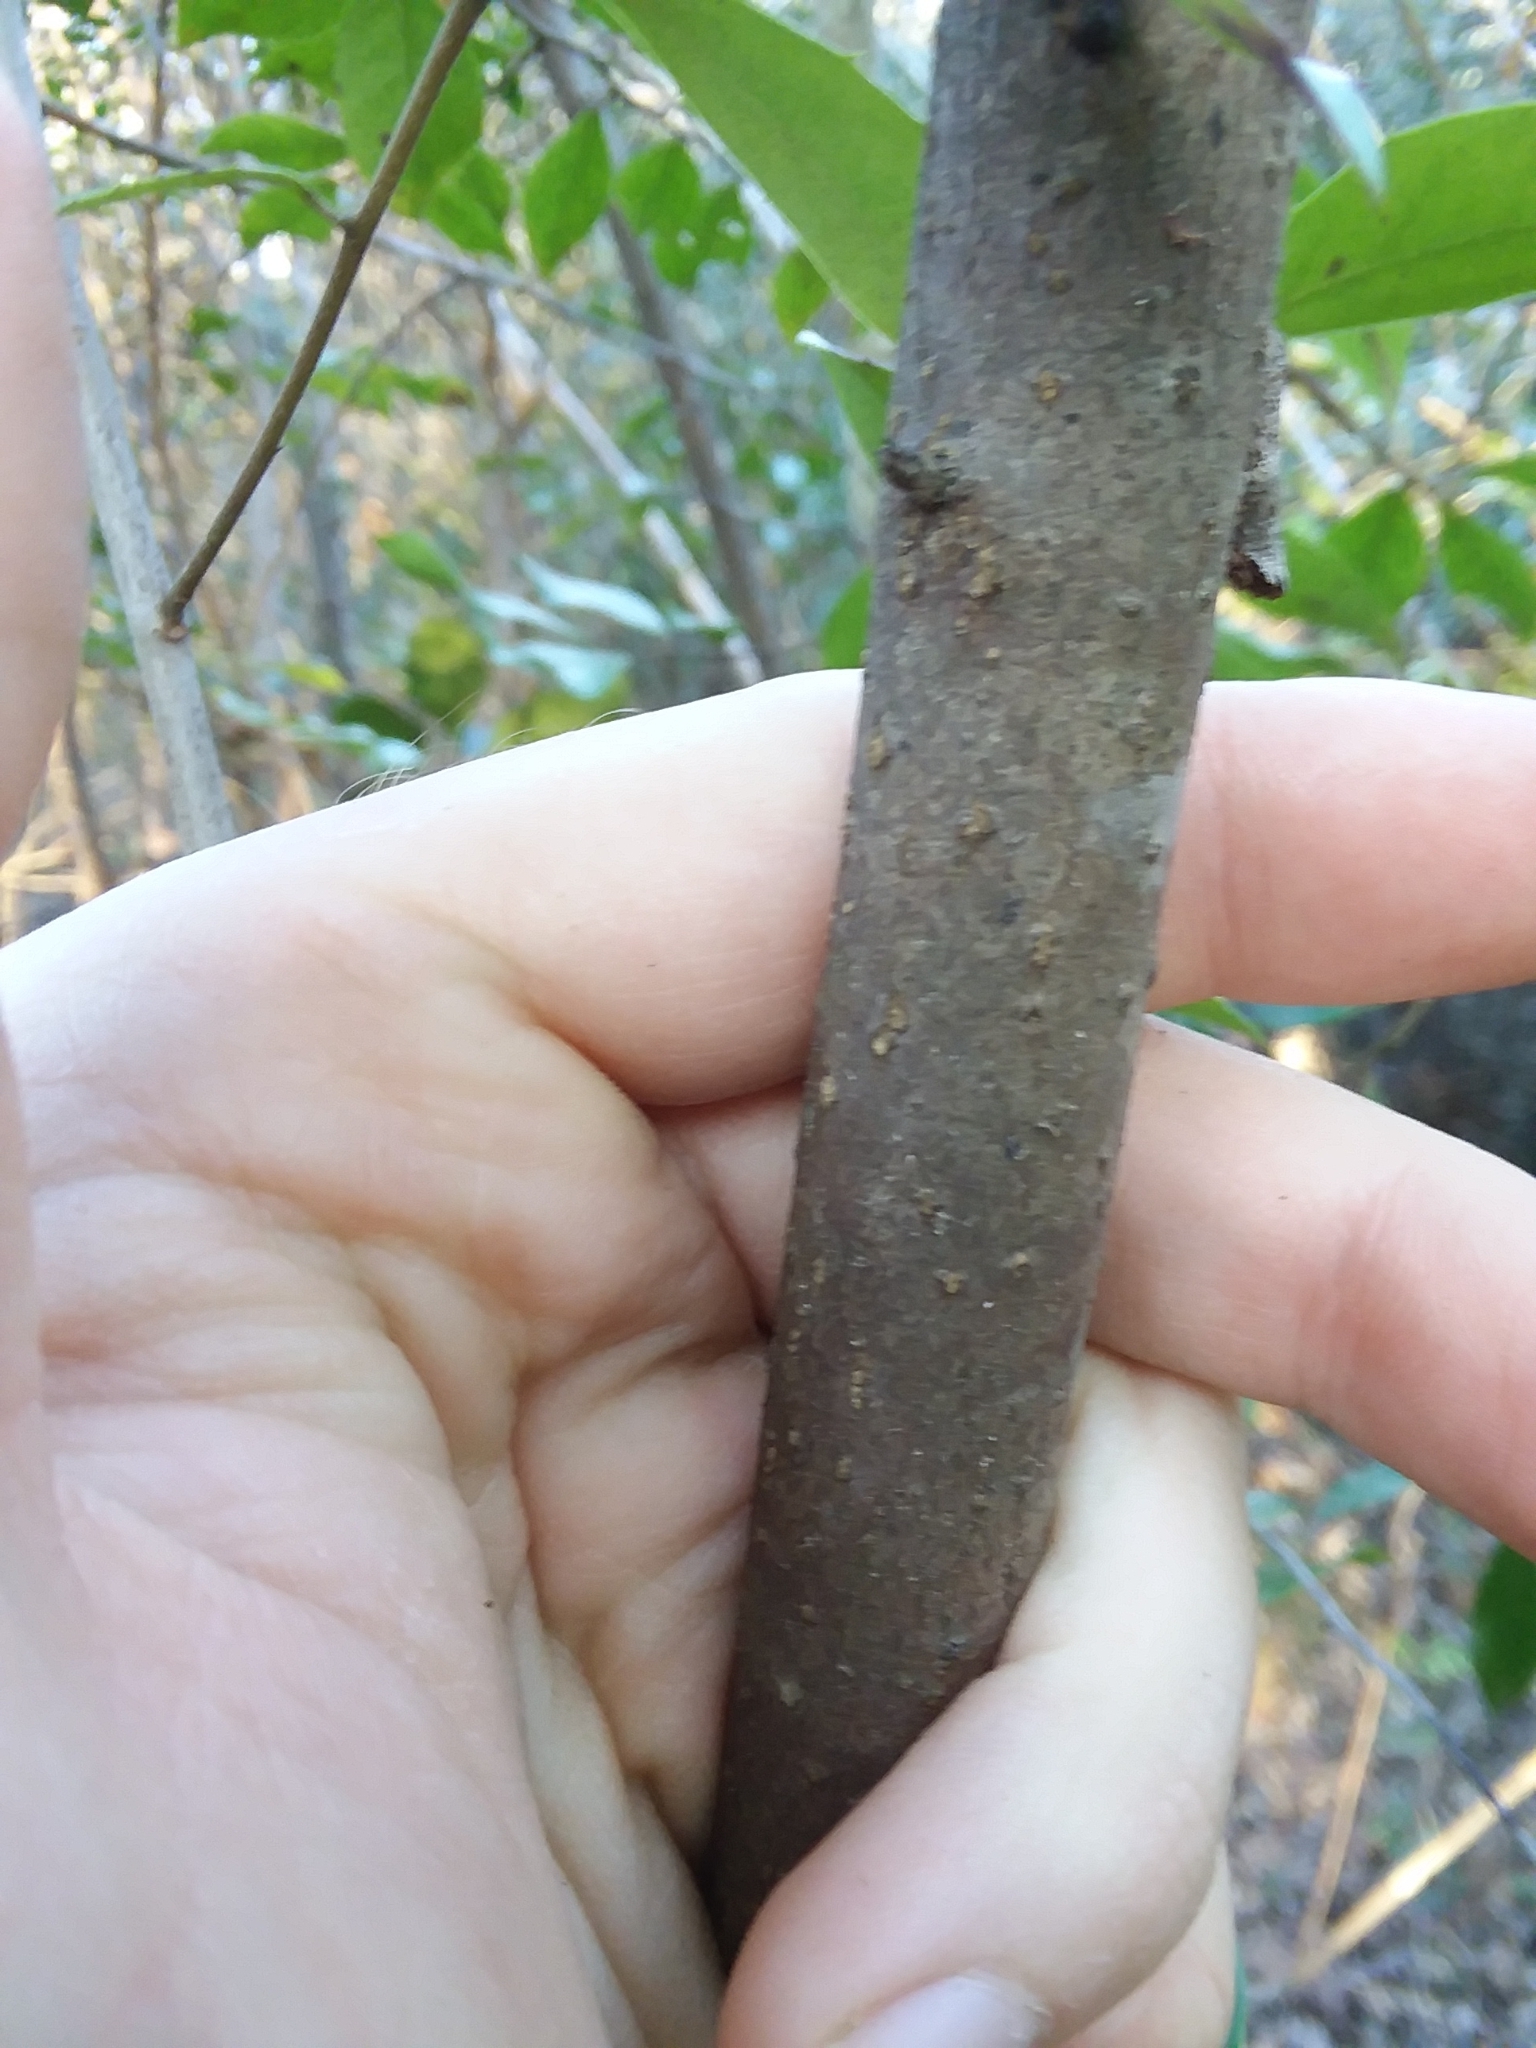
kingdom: Plantae
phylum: Tracheophyta
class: Magnoliopsida
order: Aquifoliales
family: Aquifoliaceae
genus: Ilex
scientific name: Ilex coriacea
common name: Sweet gallberry
